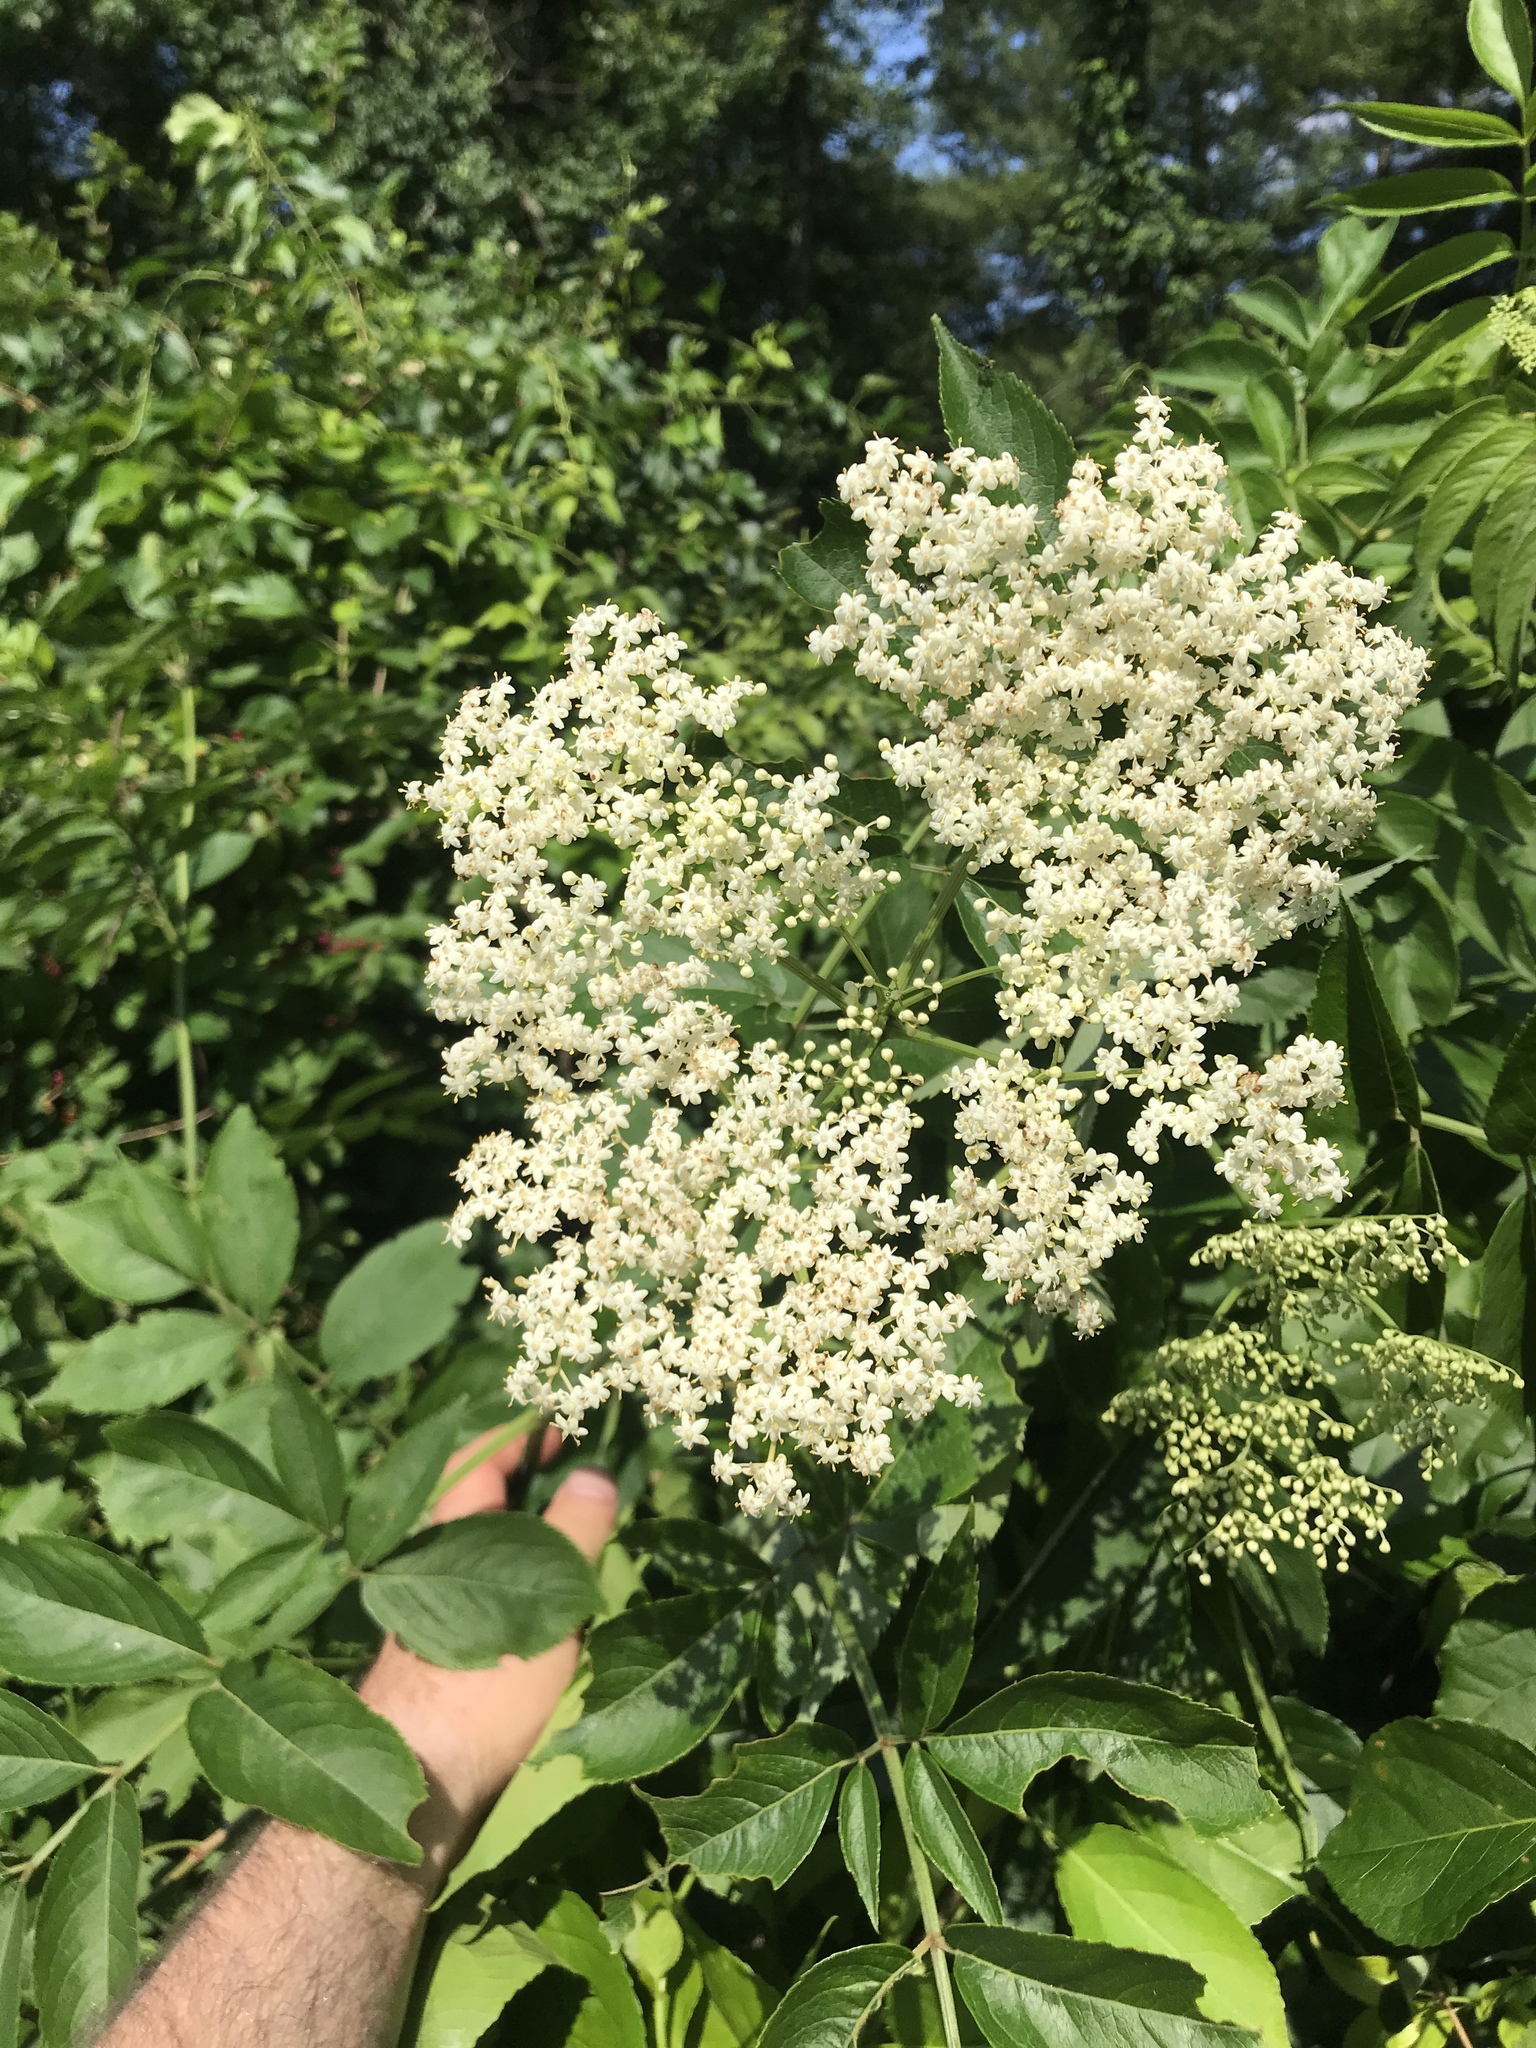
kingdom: Plantae
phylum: Tracheophyta
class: Magnoliopsida
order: Dipsacales
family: Viburnaceae
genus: Sambucus
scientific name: Sambucus canadensis
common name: American elder
